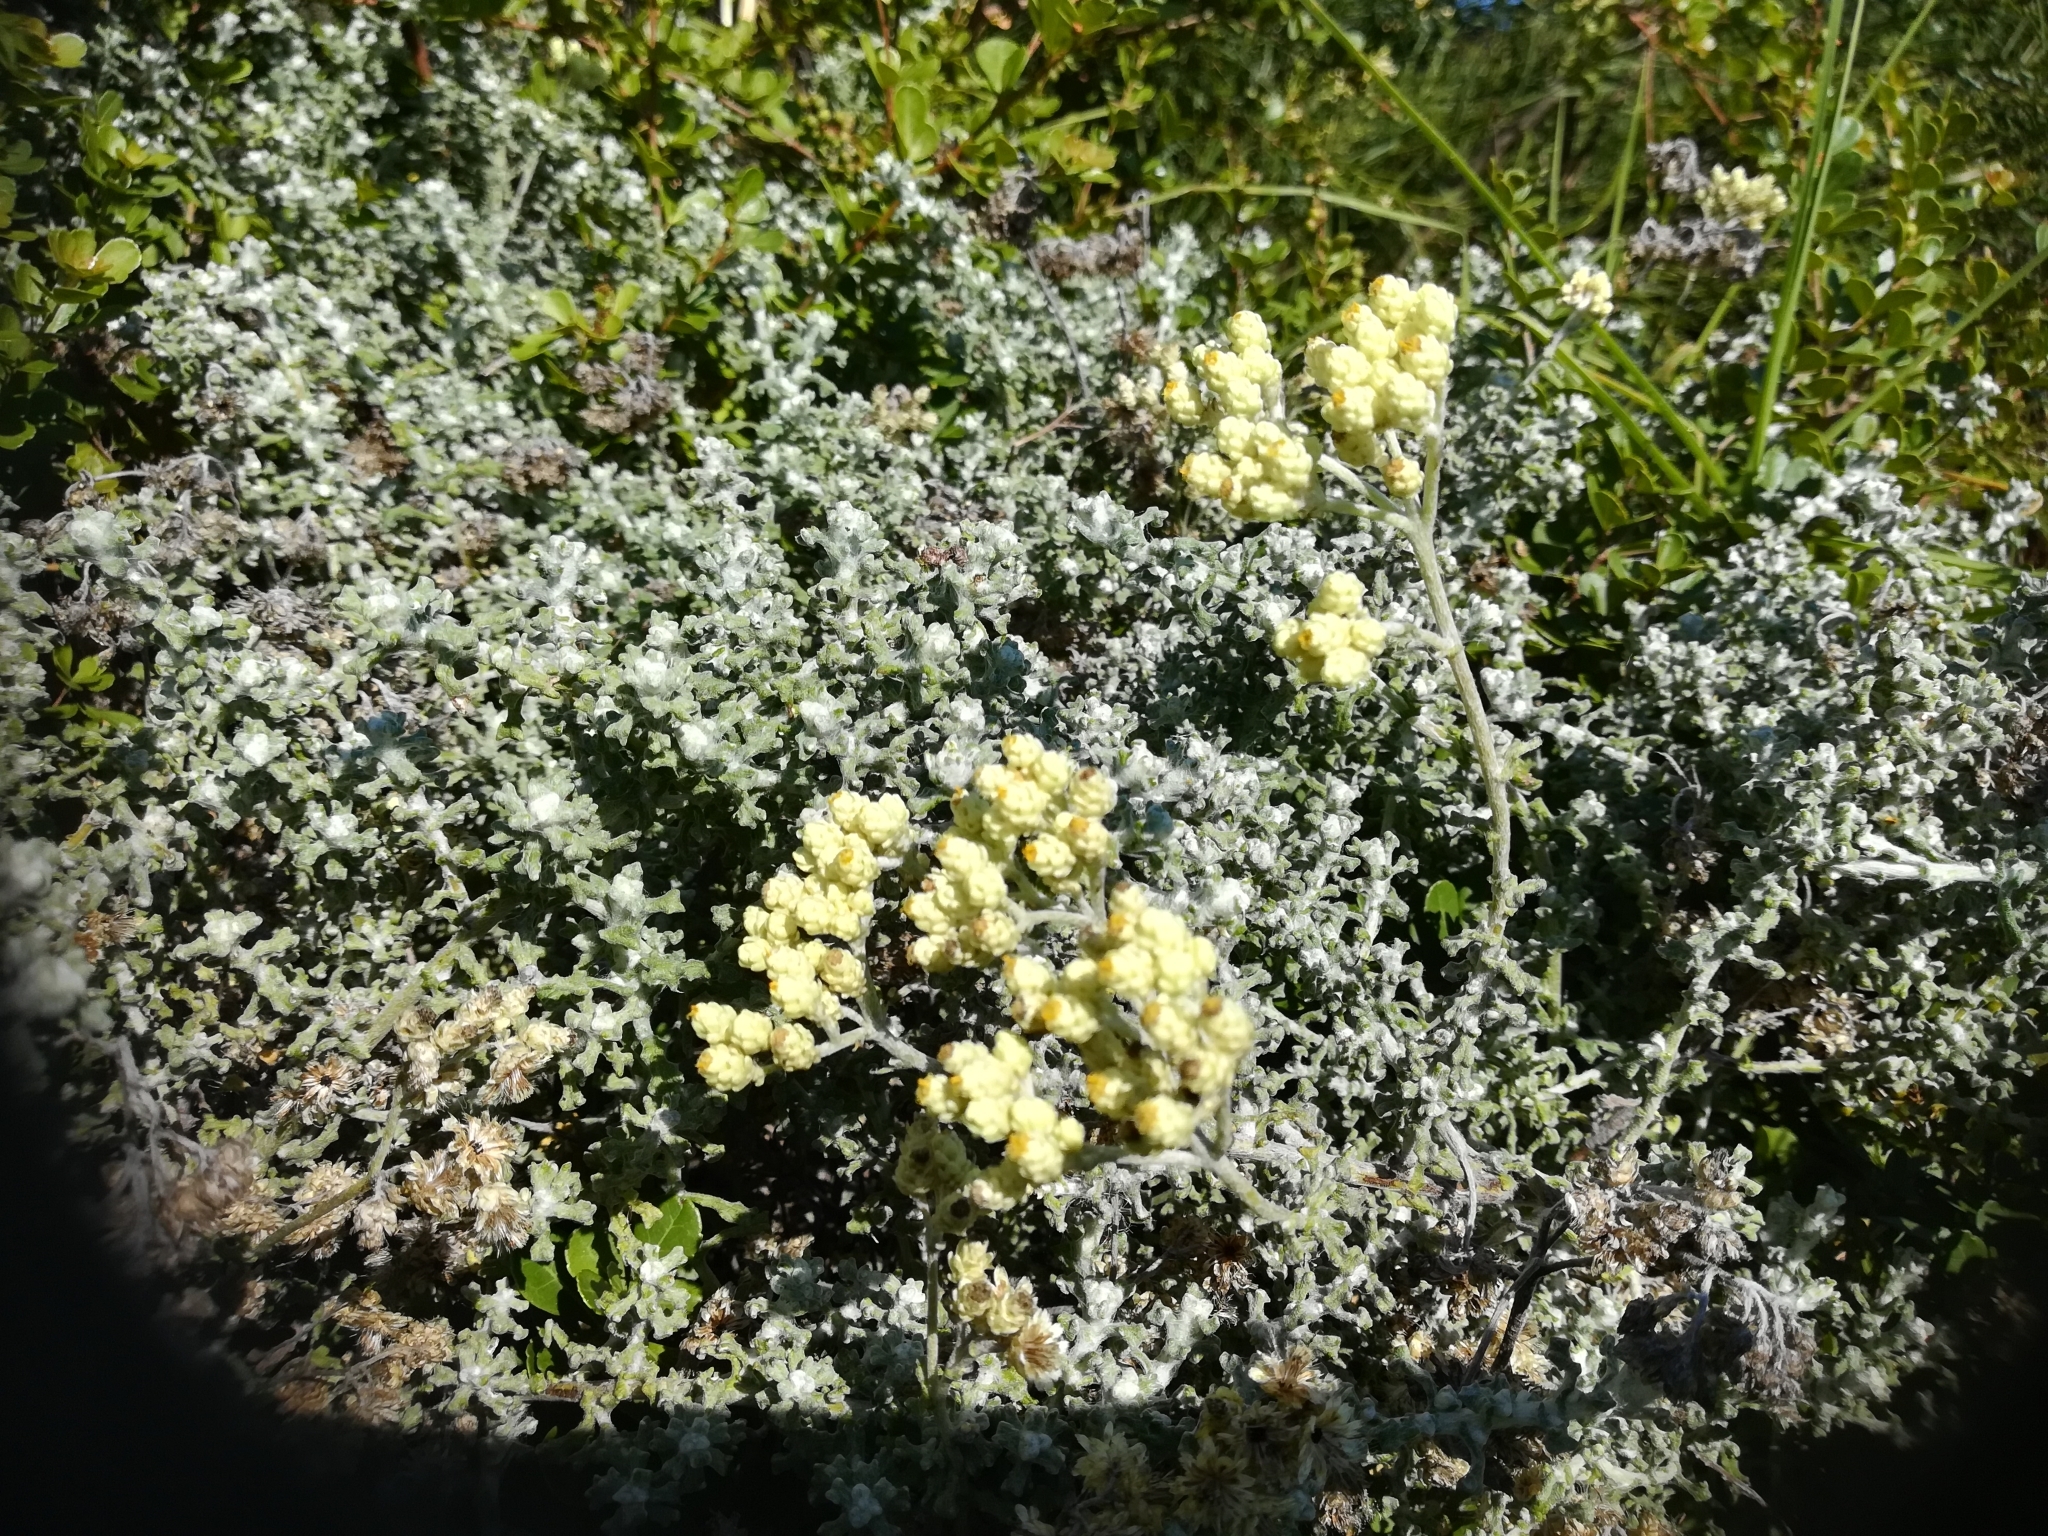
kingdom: Plantae
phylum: Tracheophyta
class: Magnoliopsida
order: Asterales
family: Asteraceae
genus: Helichrysum
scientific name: Helichrysum patulum
